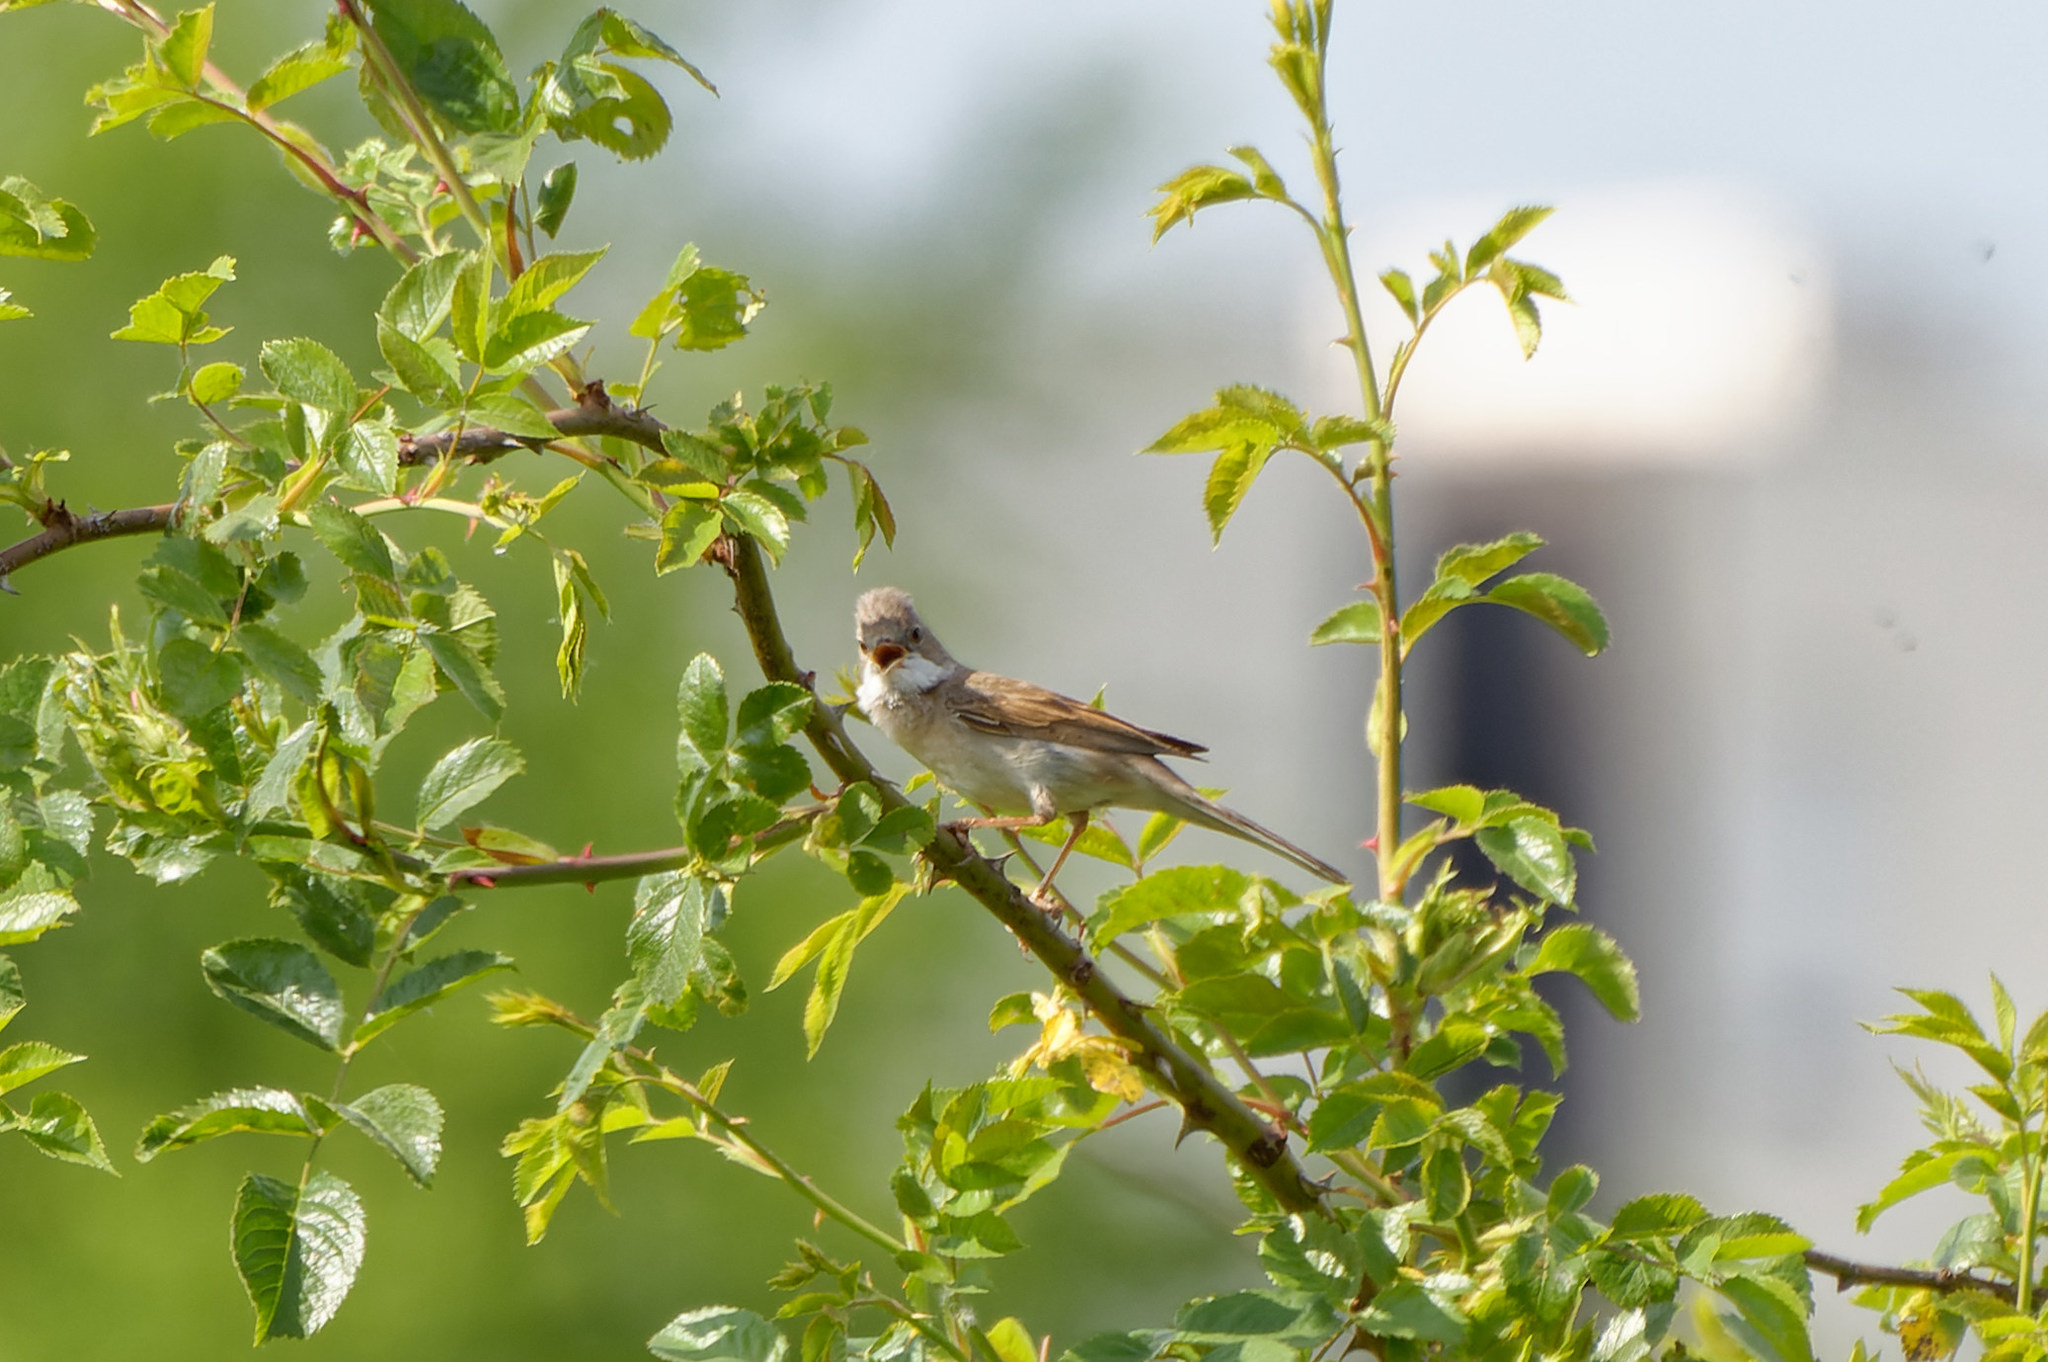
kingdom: Animalia
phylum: Chordata
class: Aves
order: Passeriformes
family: Sylviidae
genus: Sylvia
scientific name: Sylvia communis
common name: Common whitethroat
